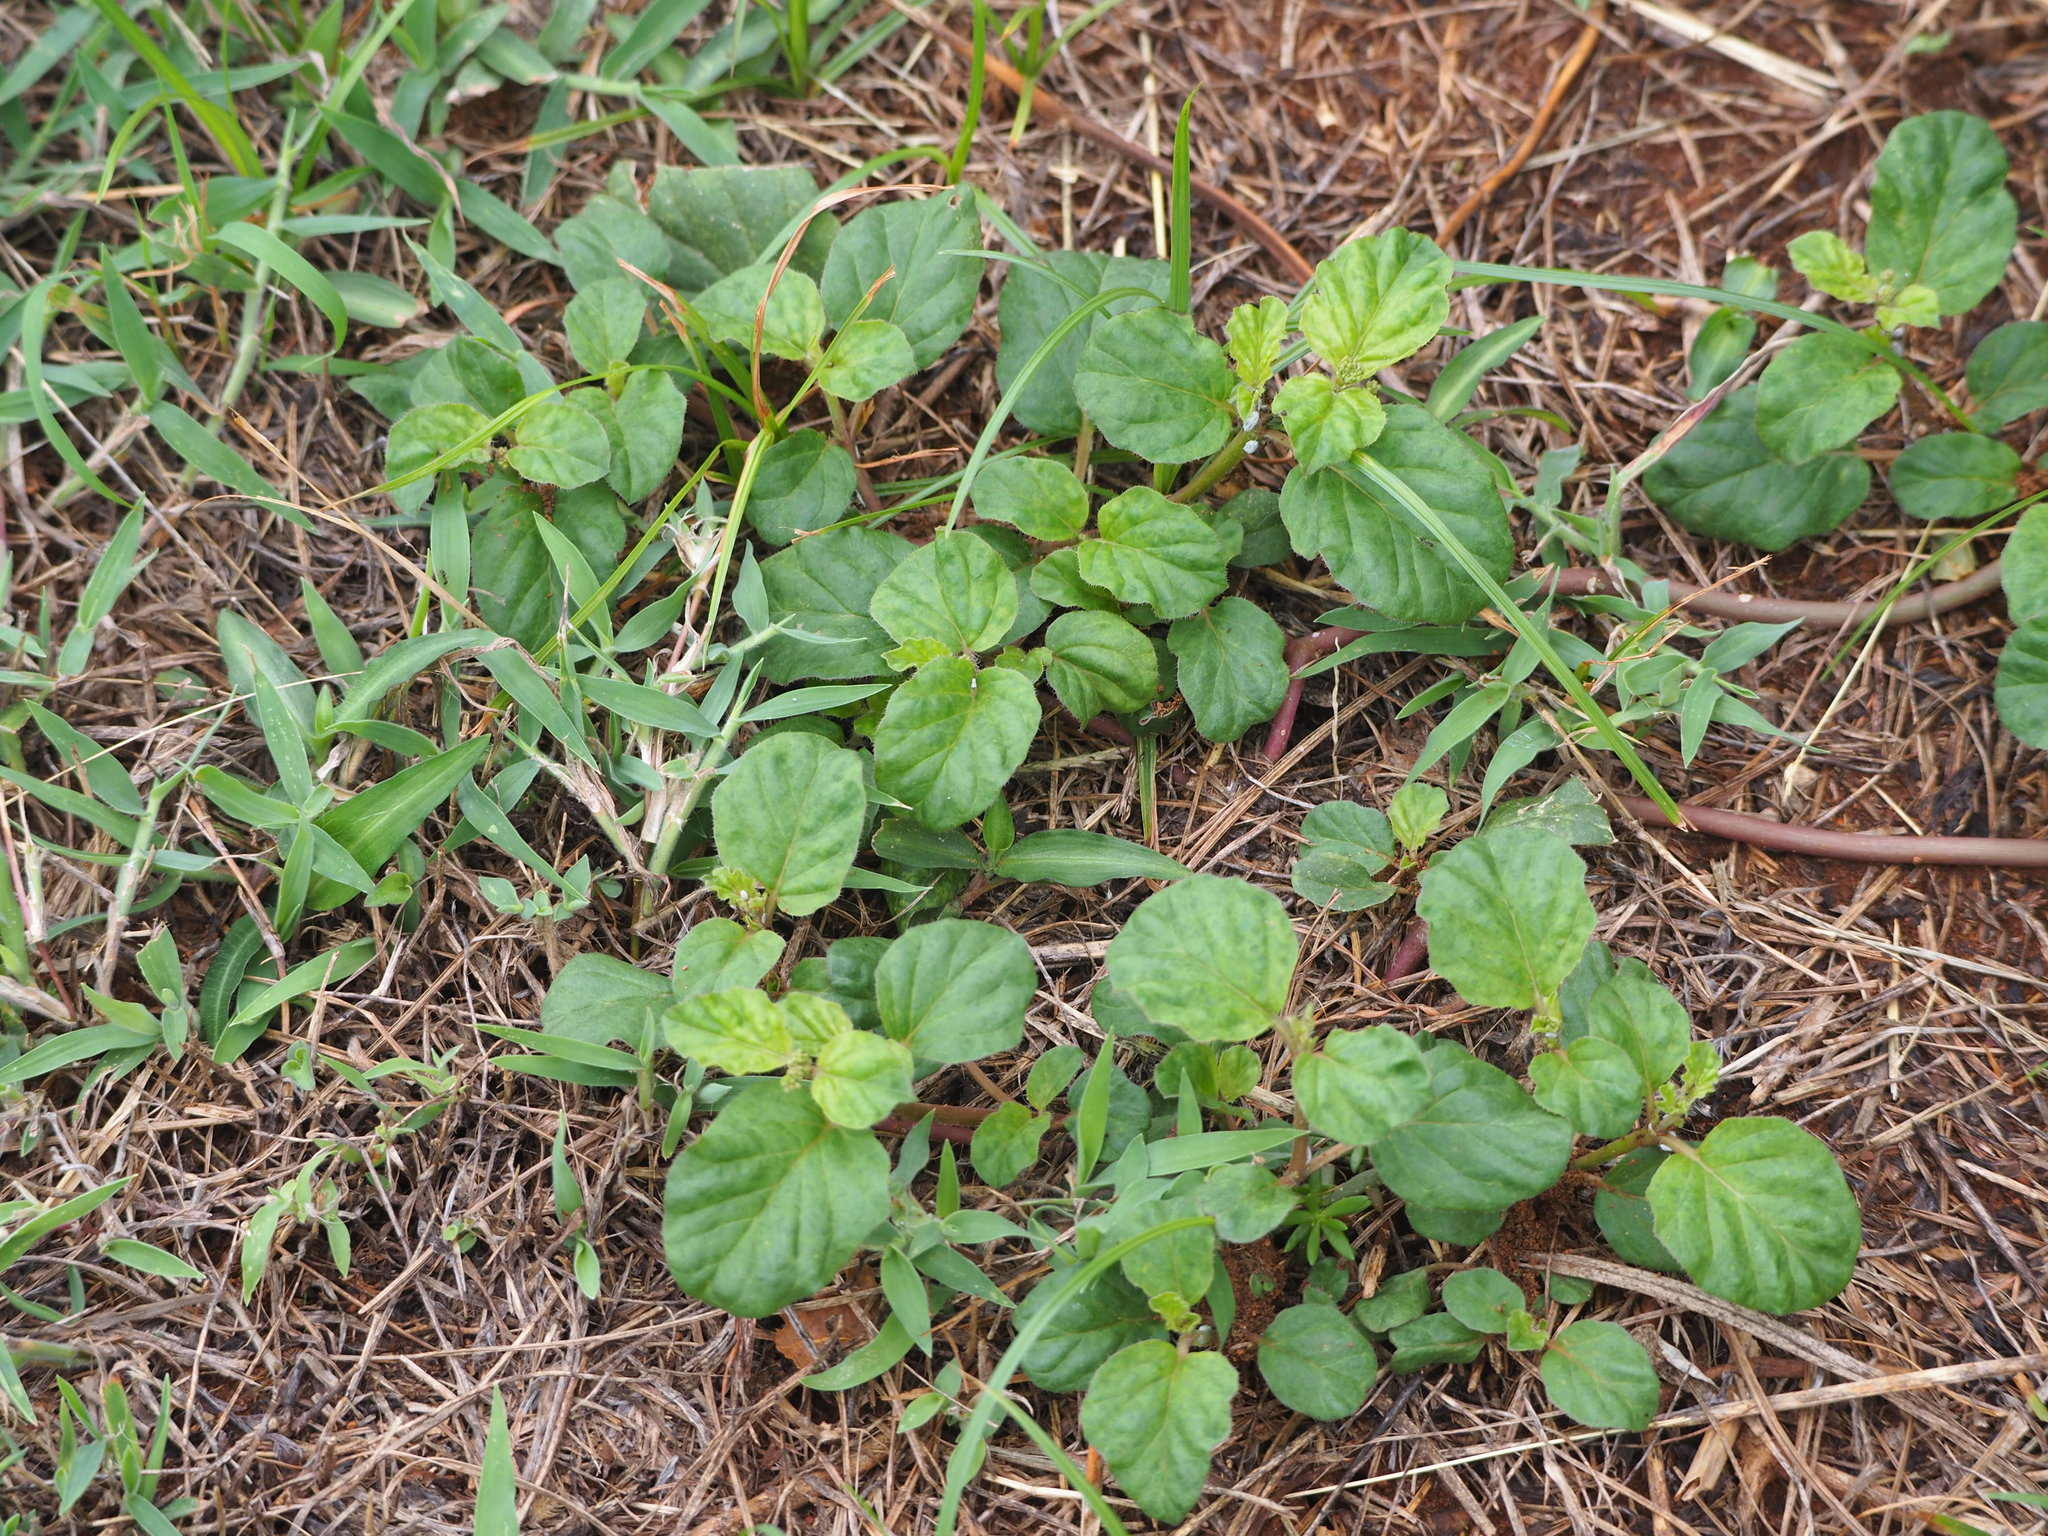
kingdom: Plantae
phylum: Tracheophyta
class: Magnoliopsida
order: Caryophyllales
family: Nyctaginaceae
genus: Boerhavia
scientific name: Boerhavia coccinea
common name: Scarlet spiderling
